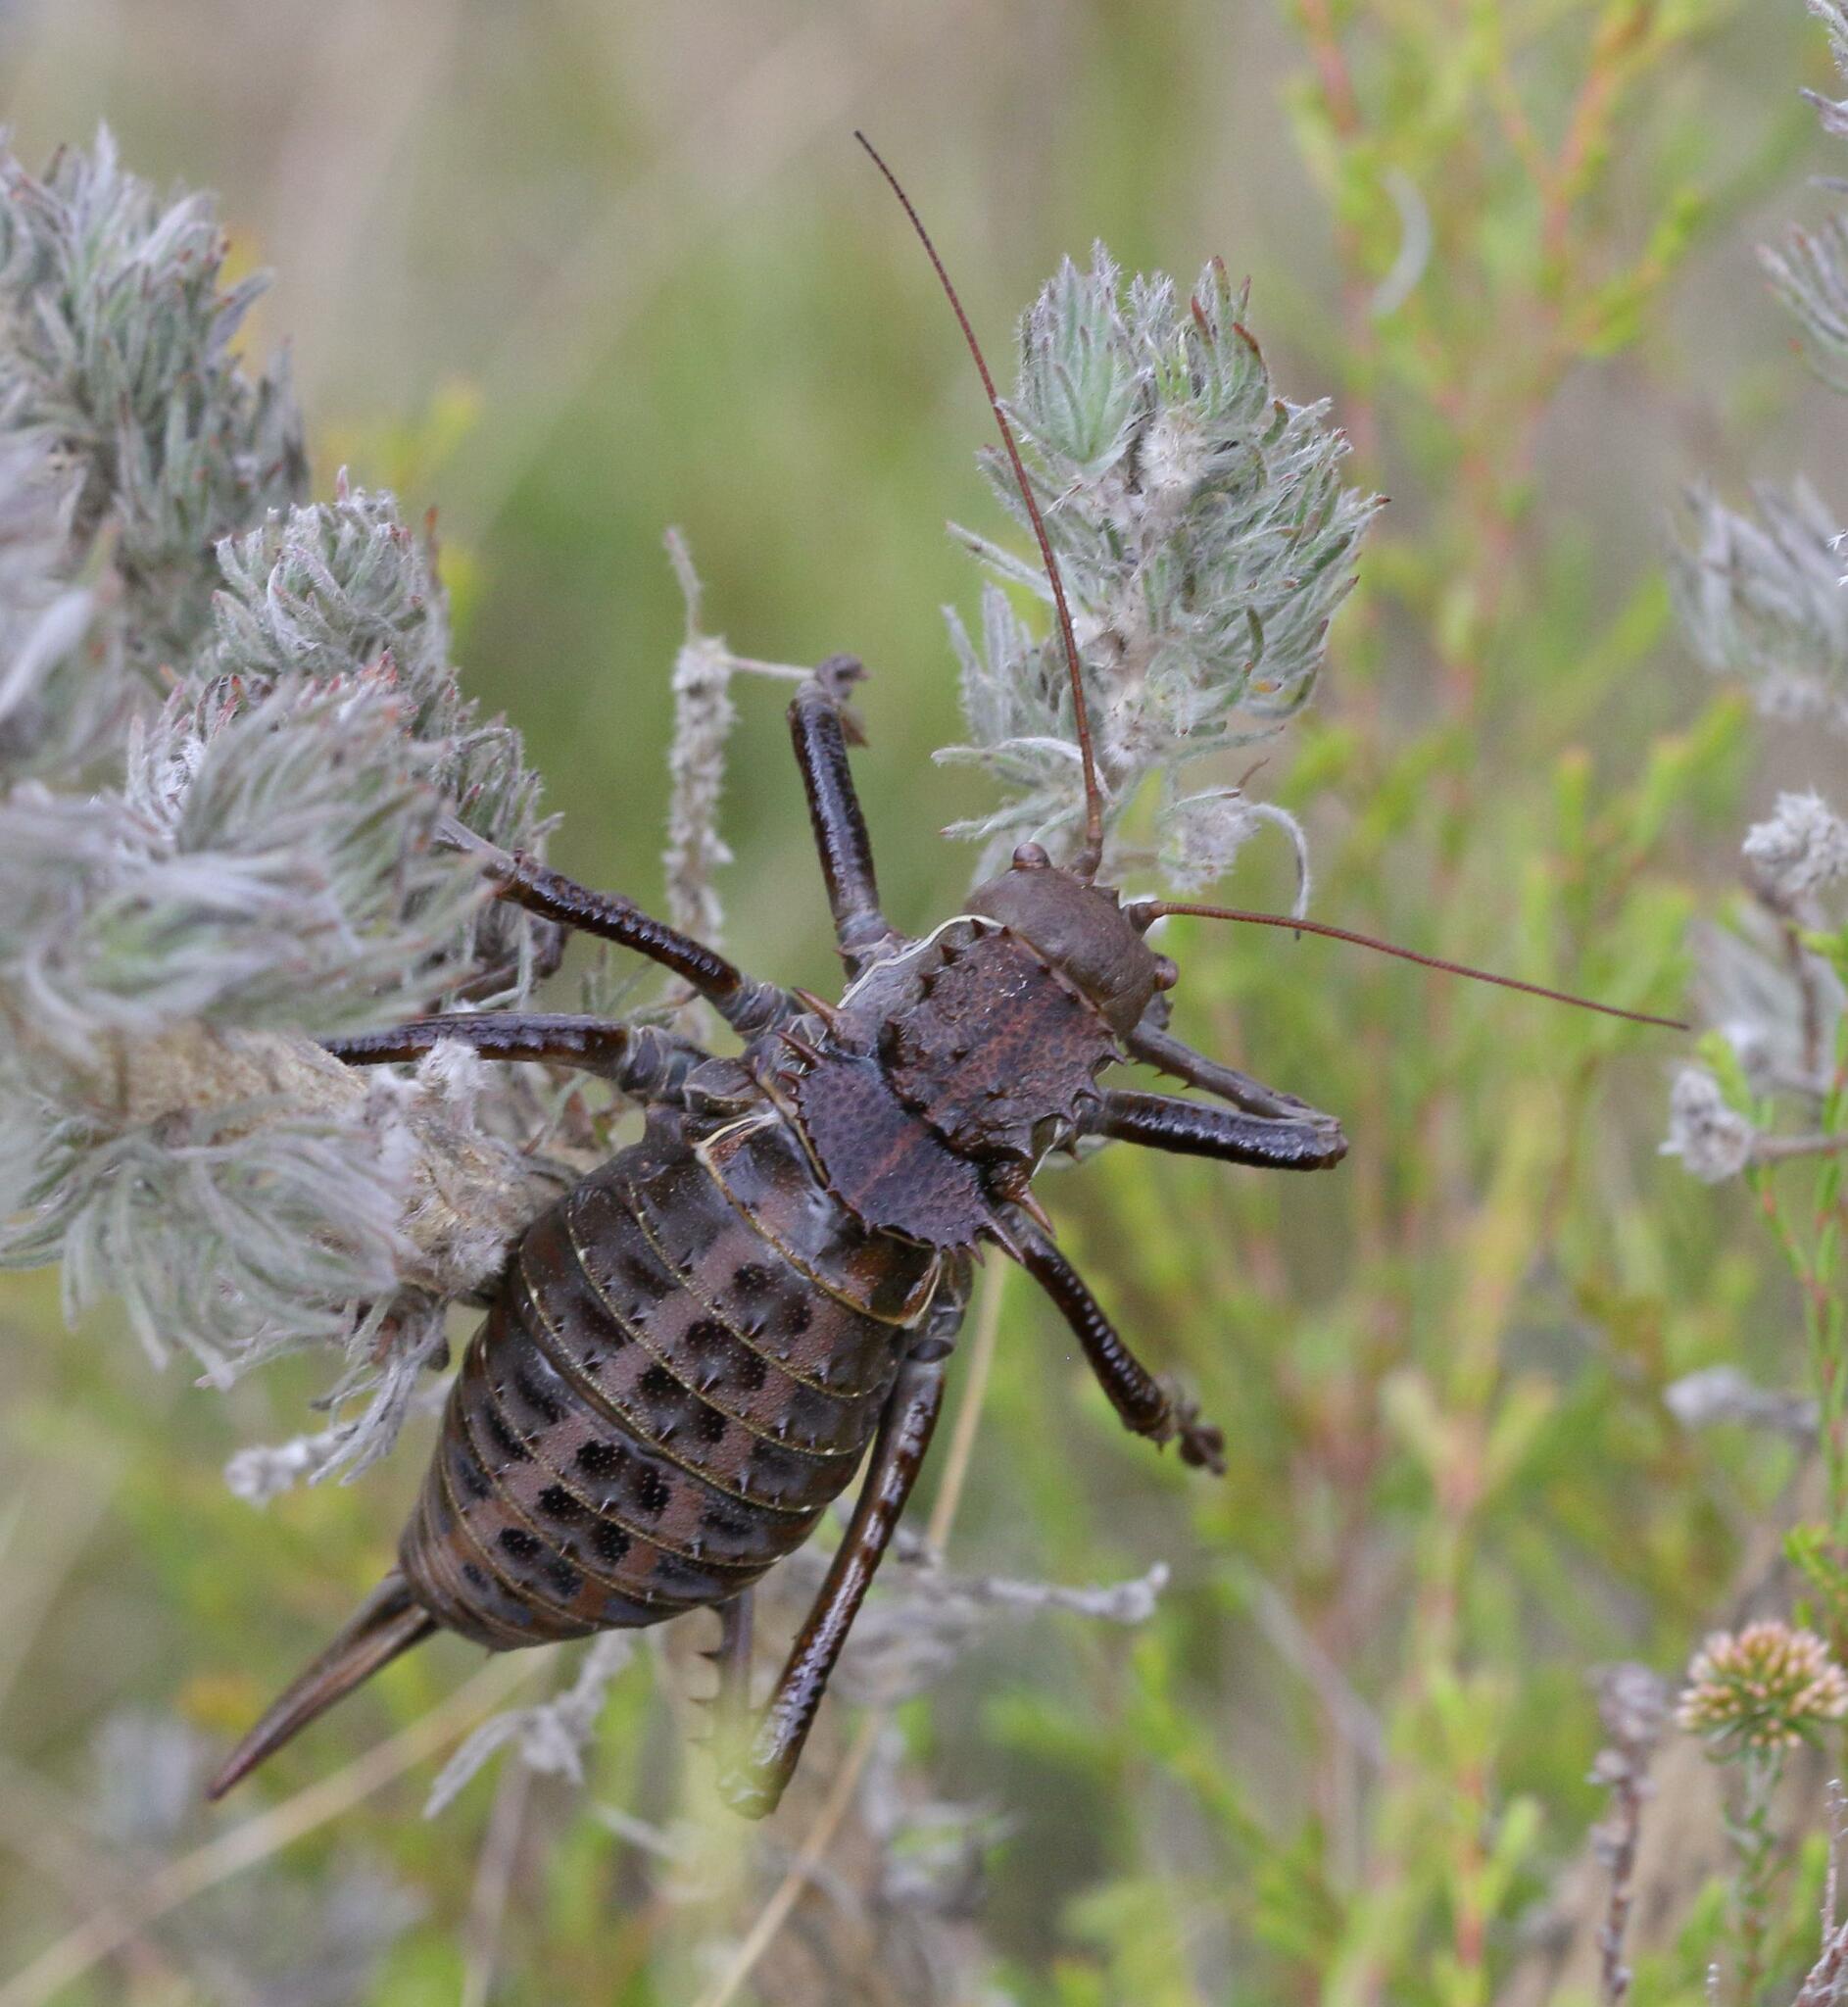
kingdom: Animalia
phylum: Arthropoda
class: Insecta
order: Orthoptera
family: Tettigoniidae
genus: Hetrodes
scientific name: Hetrodes pupus
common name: Koringkriek
